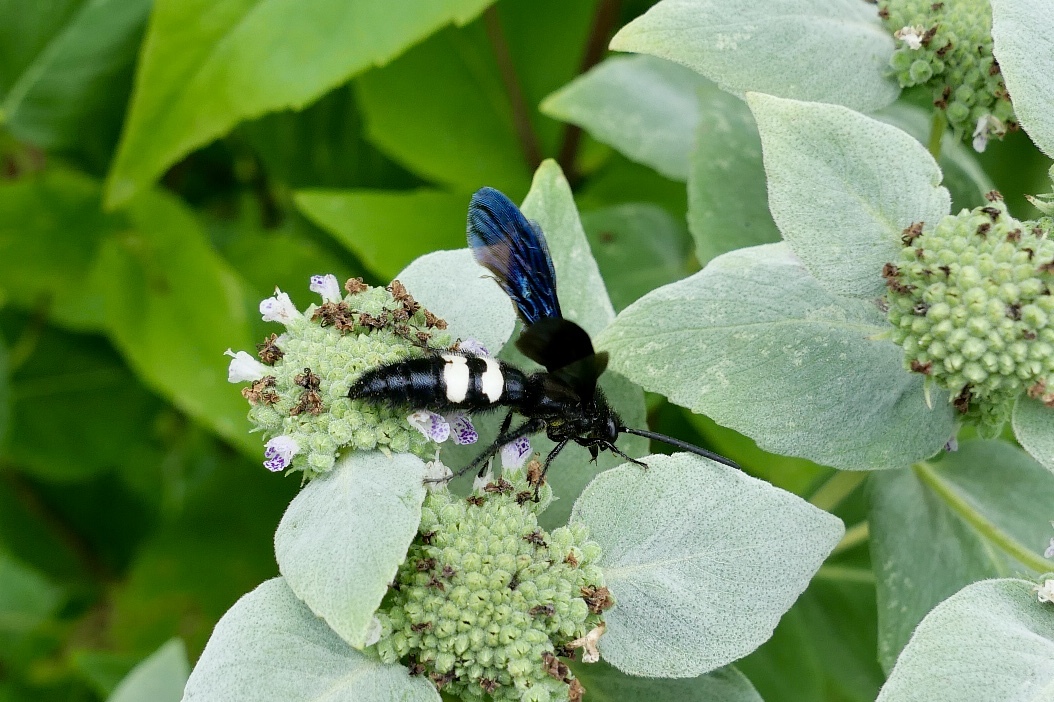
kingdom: Animalia
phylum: Arthropoda
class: Insecta
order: Hymenoptera
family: Scoliidae
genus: Scolia
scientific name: Scolia bicincta
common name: Double-banded scoliid wasp
